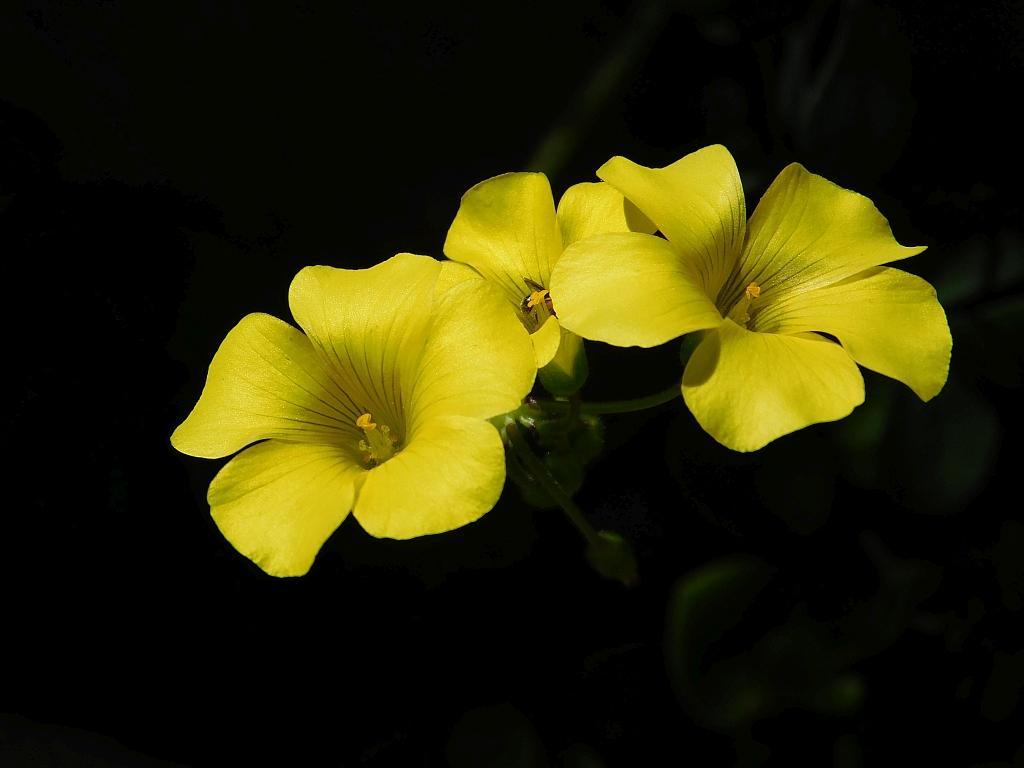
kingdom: Plantae
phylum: Tracheophyta
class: Magnoliopsida
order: Oxalidales
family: Oxalidaceae
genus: Oxalis
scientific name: Oxalis pes-caprae
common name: Bermuda-buttercup
